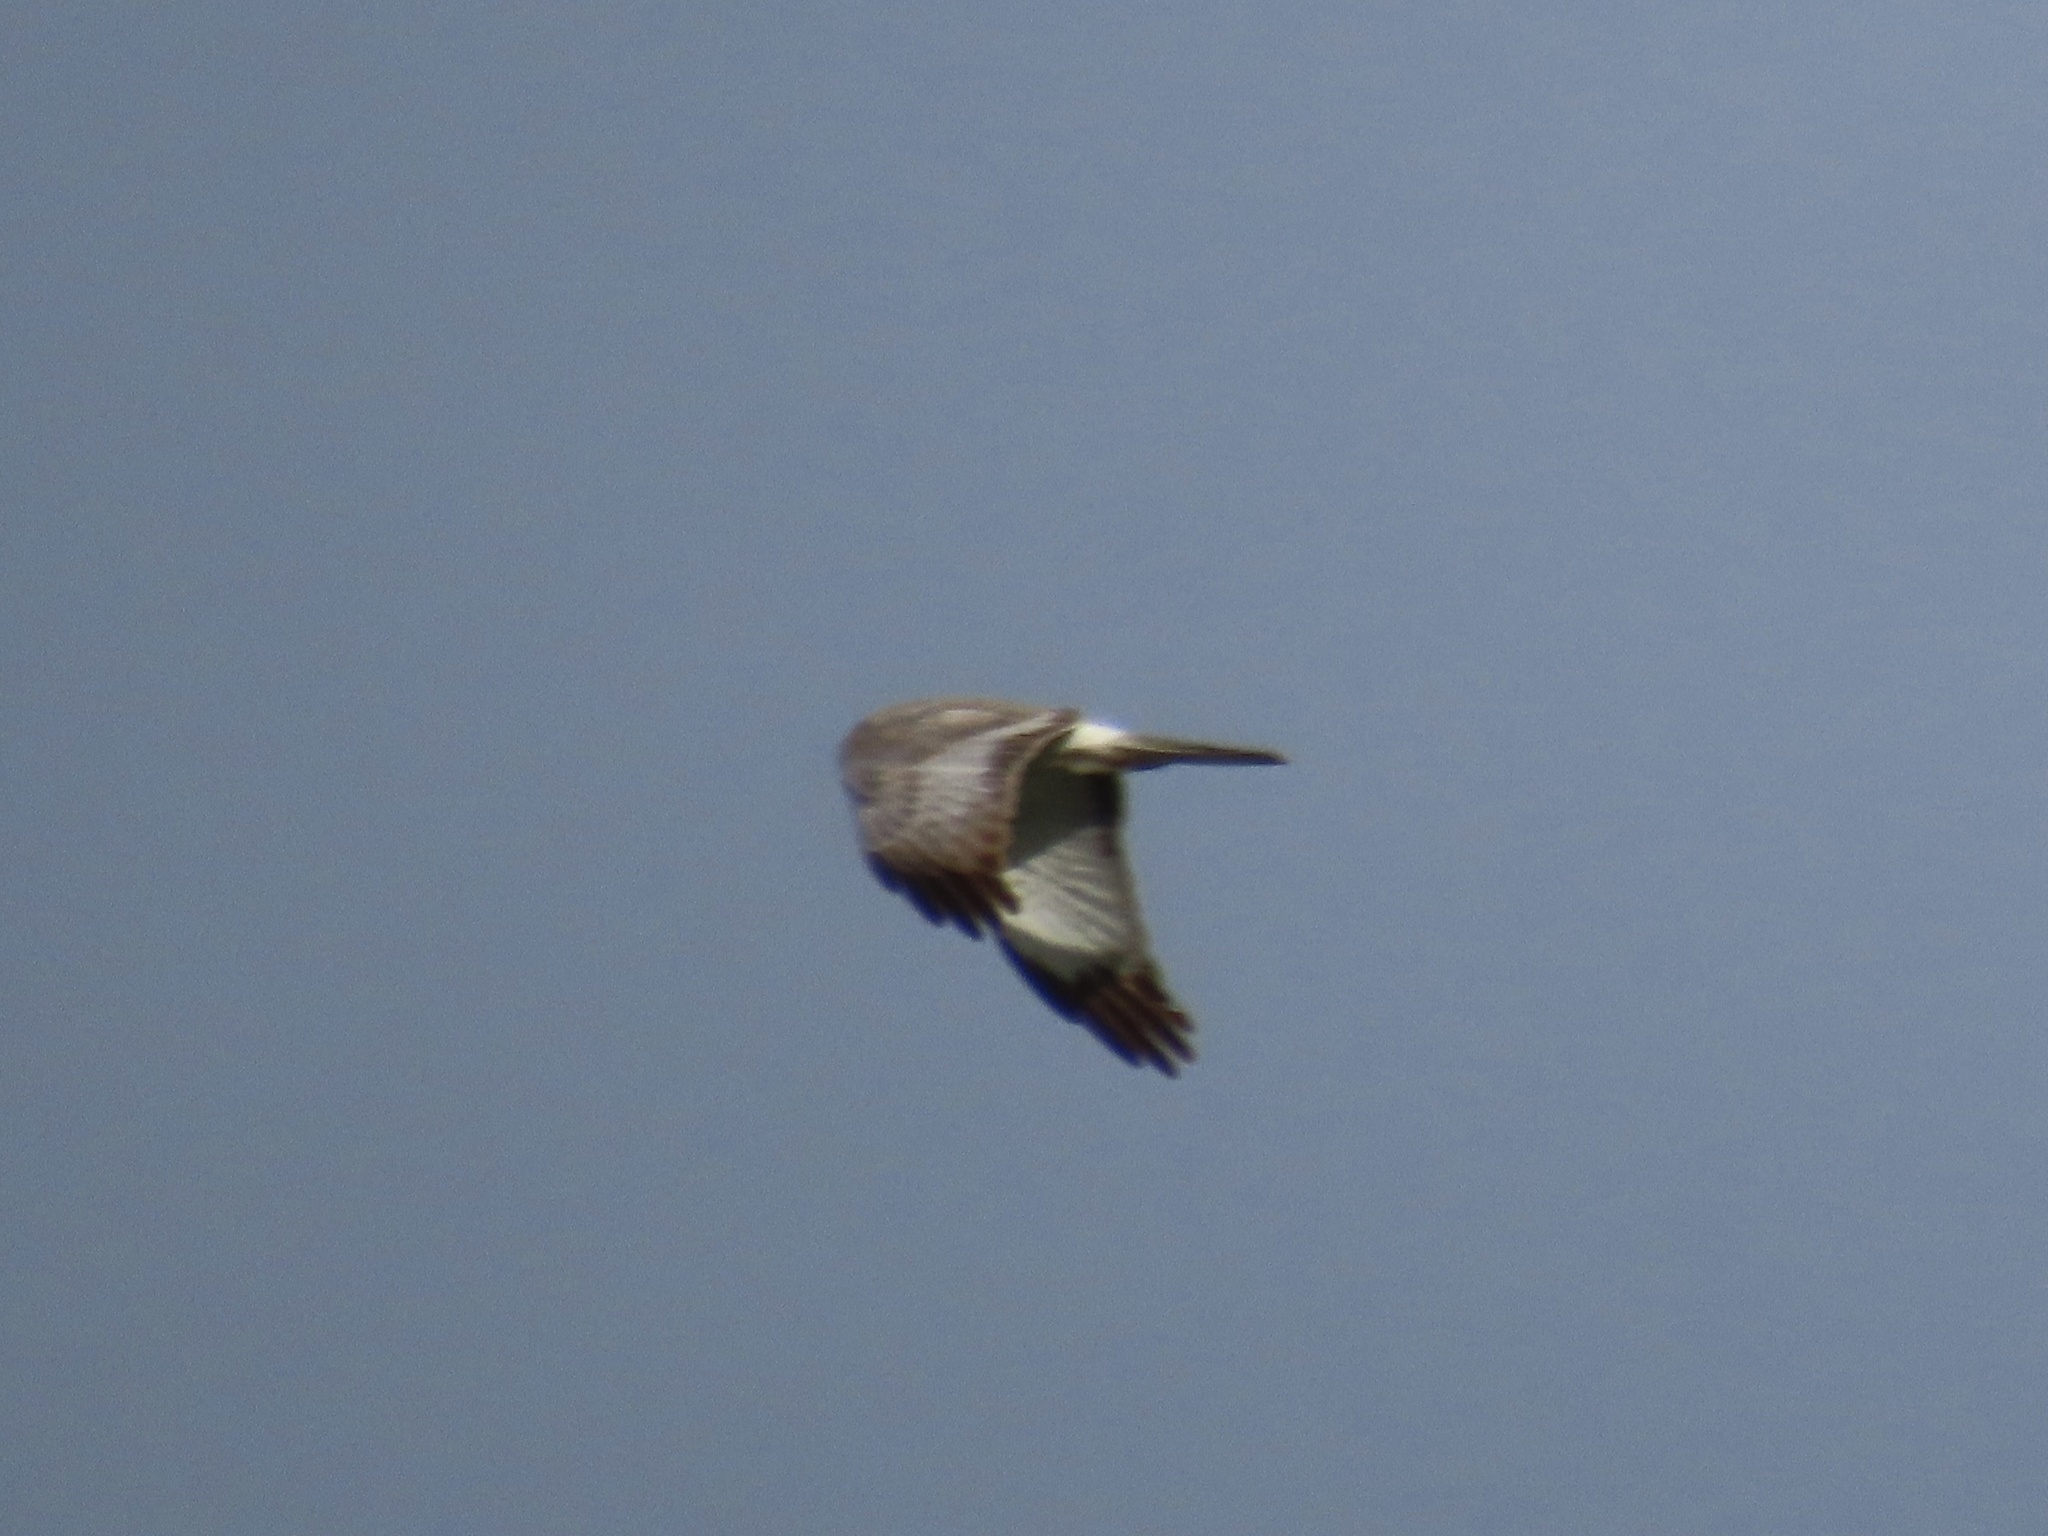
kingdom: Animalia
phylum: Chordata
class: Aves
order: Accipitriformes
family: Accipitridae
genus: Circus
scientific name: Circus cyaneus
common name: Hen harrier
